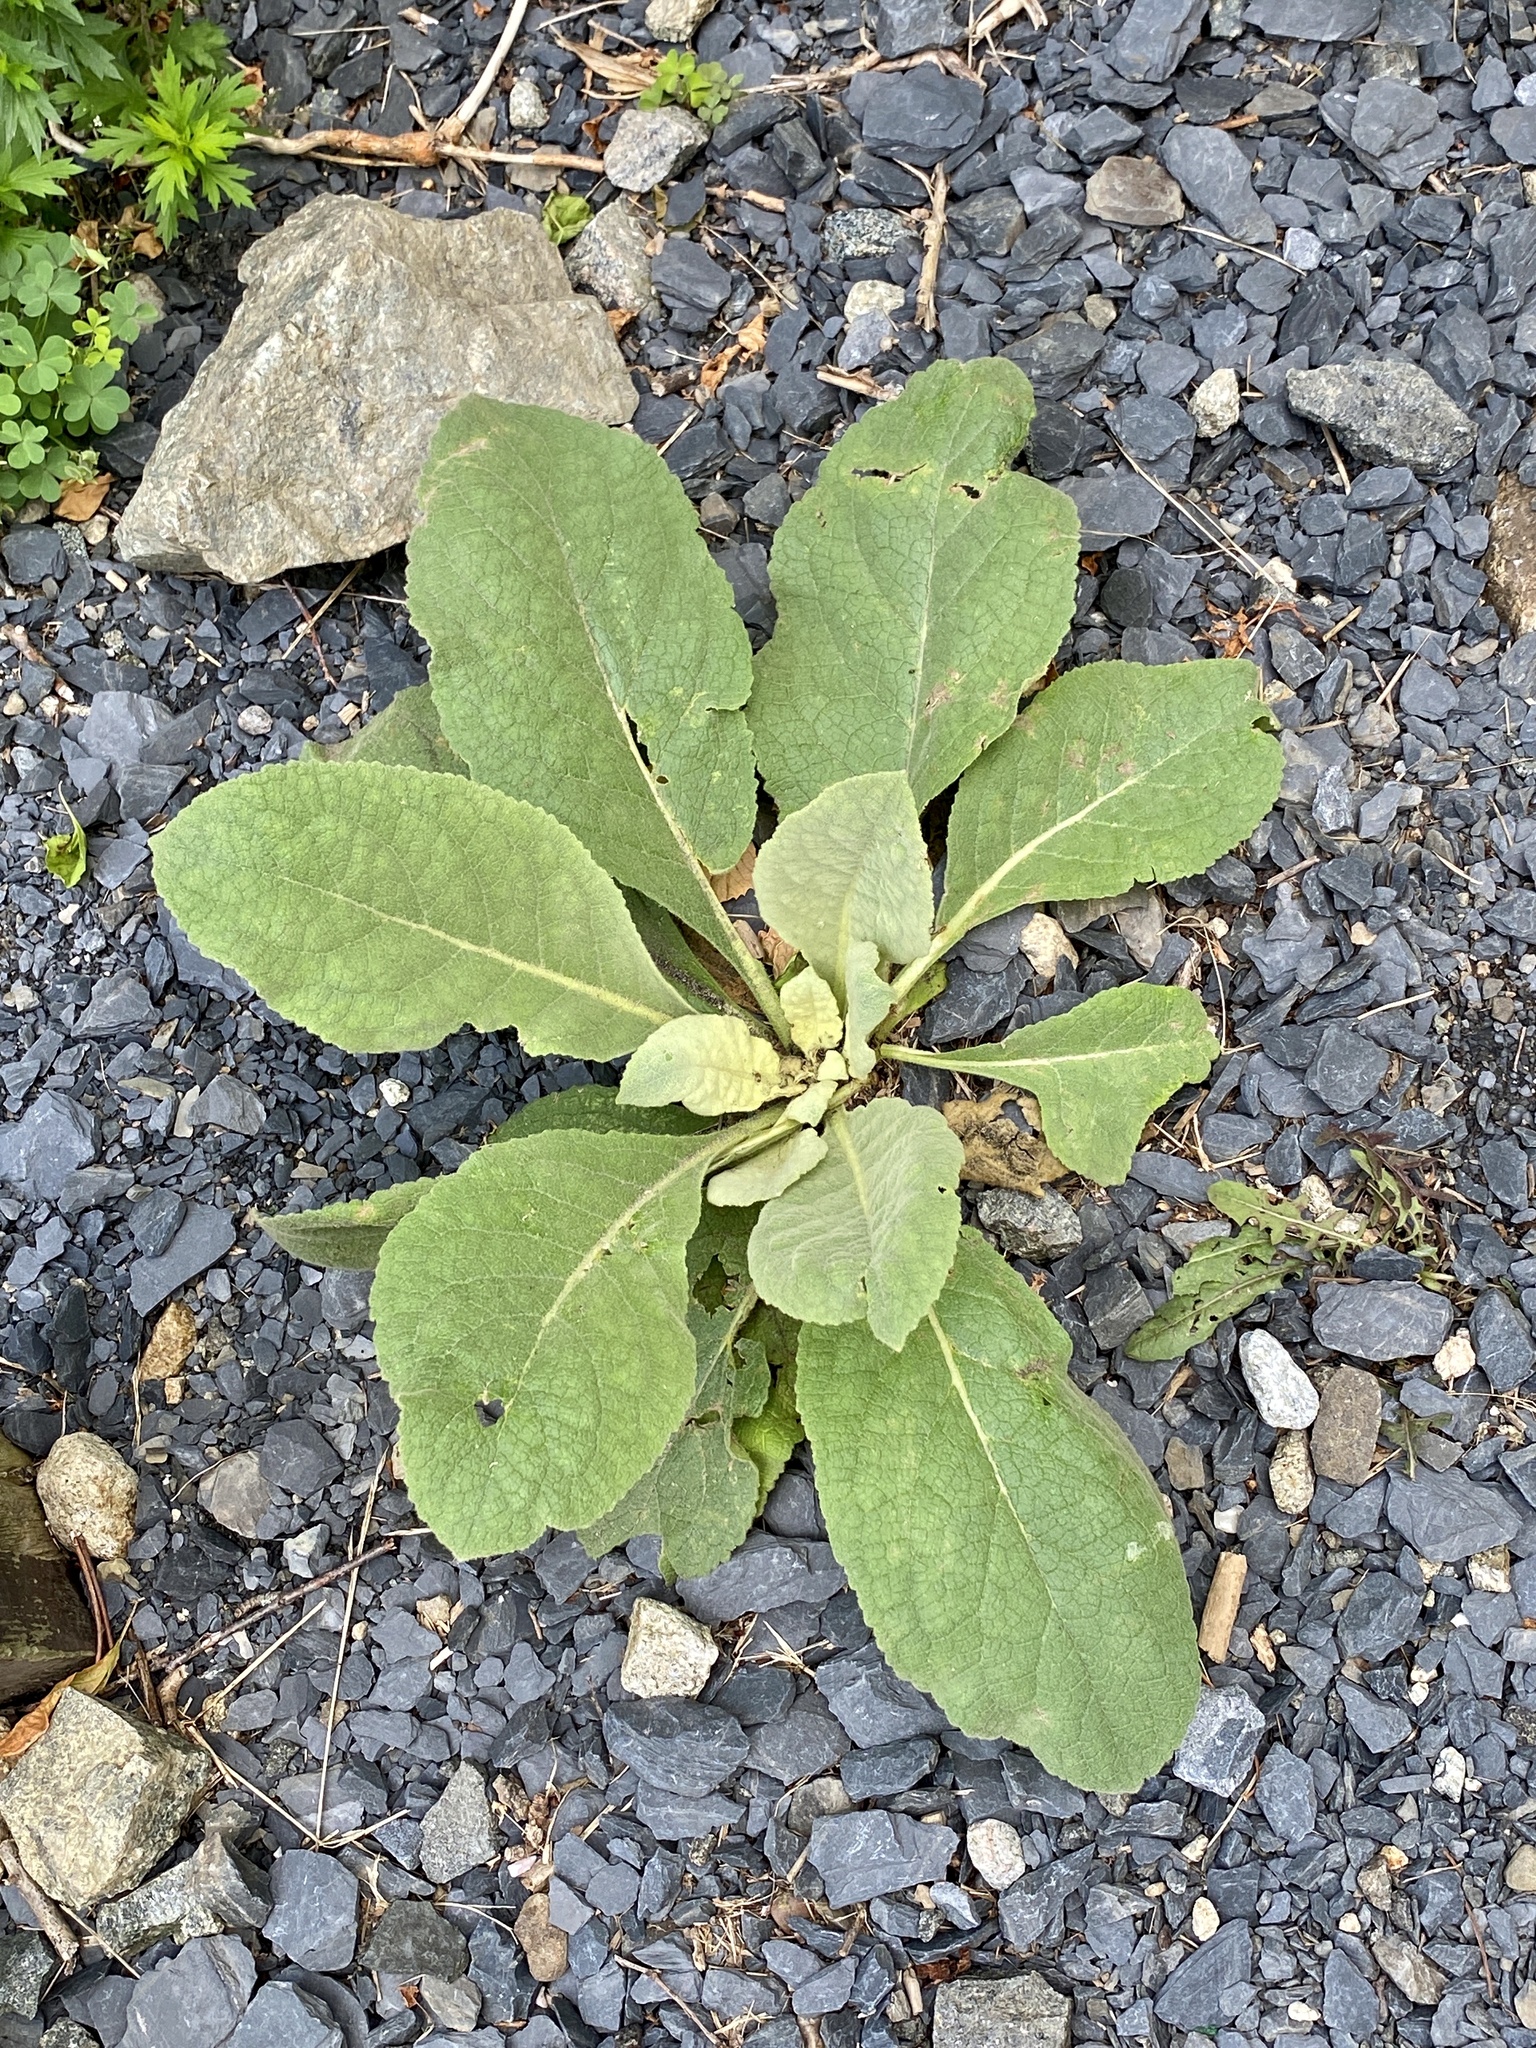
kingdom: Plantae
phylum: Tracheophyta
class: Magnoliopsida
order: Lamiales
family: Scrophulariaceae
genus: Verbascum
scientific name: Verbascum thapsus
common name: Common mullein
